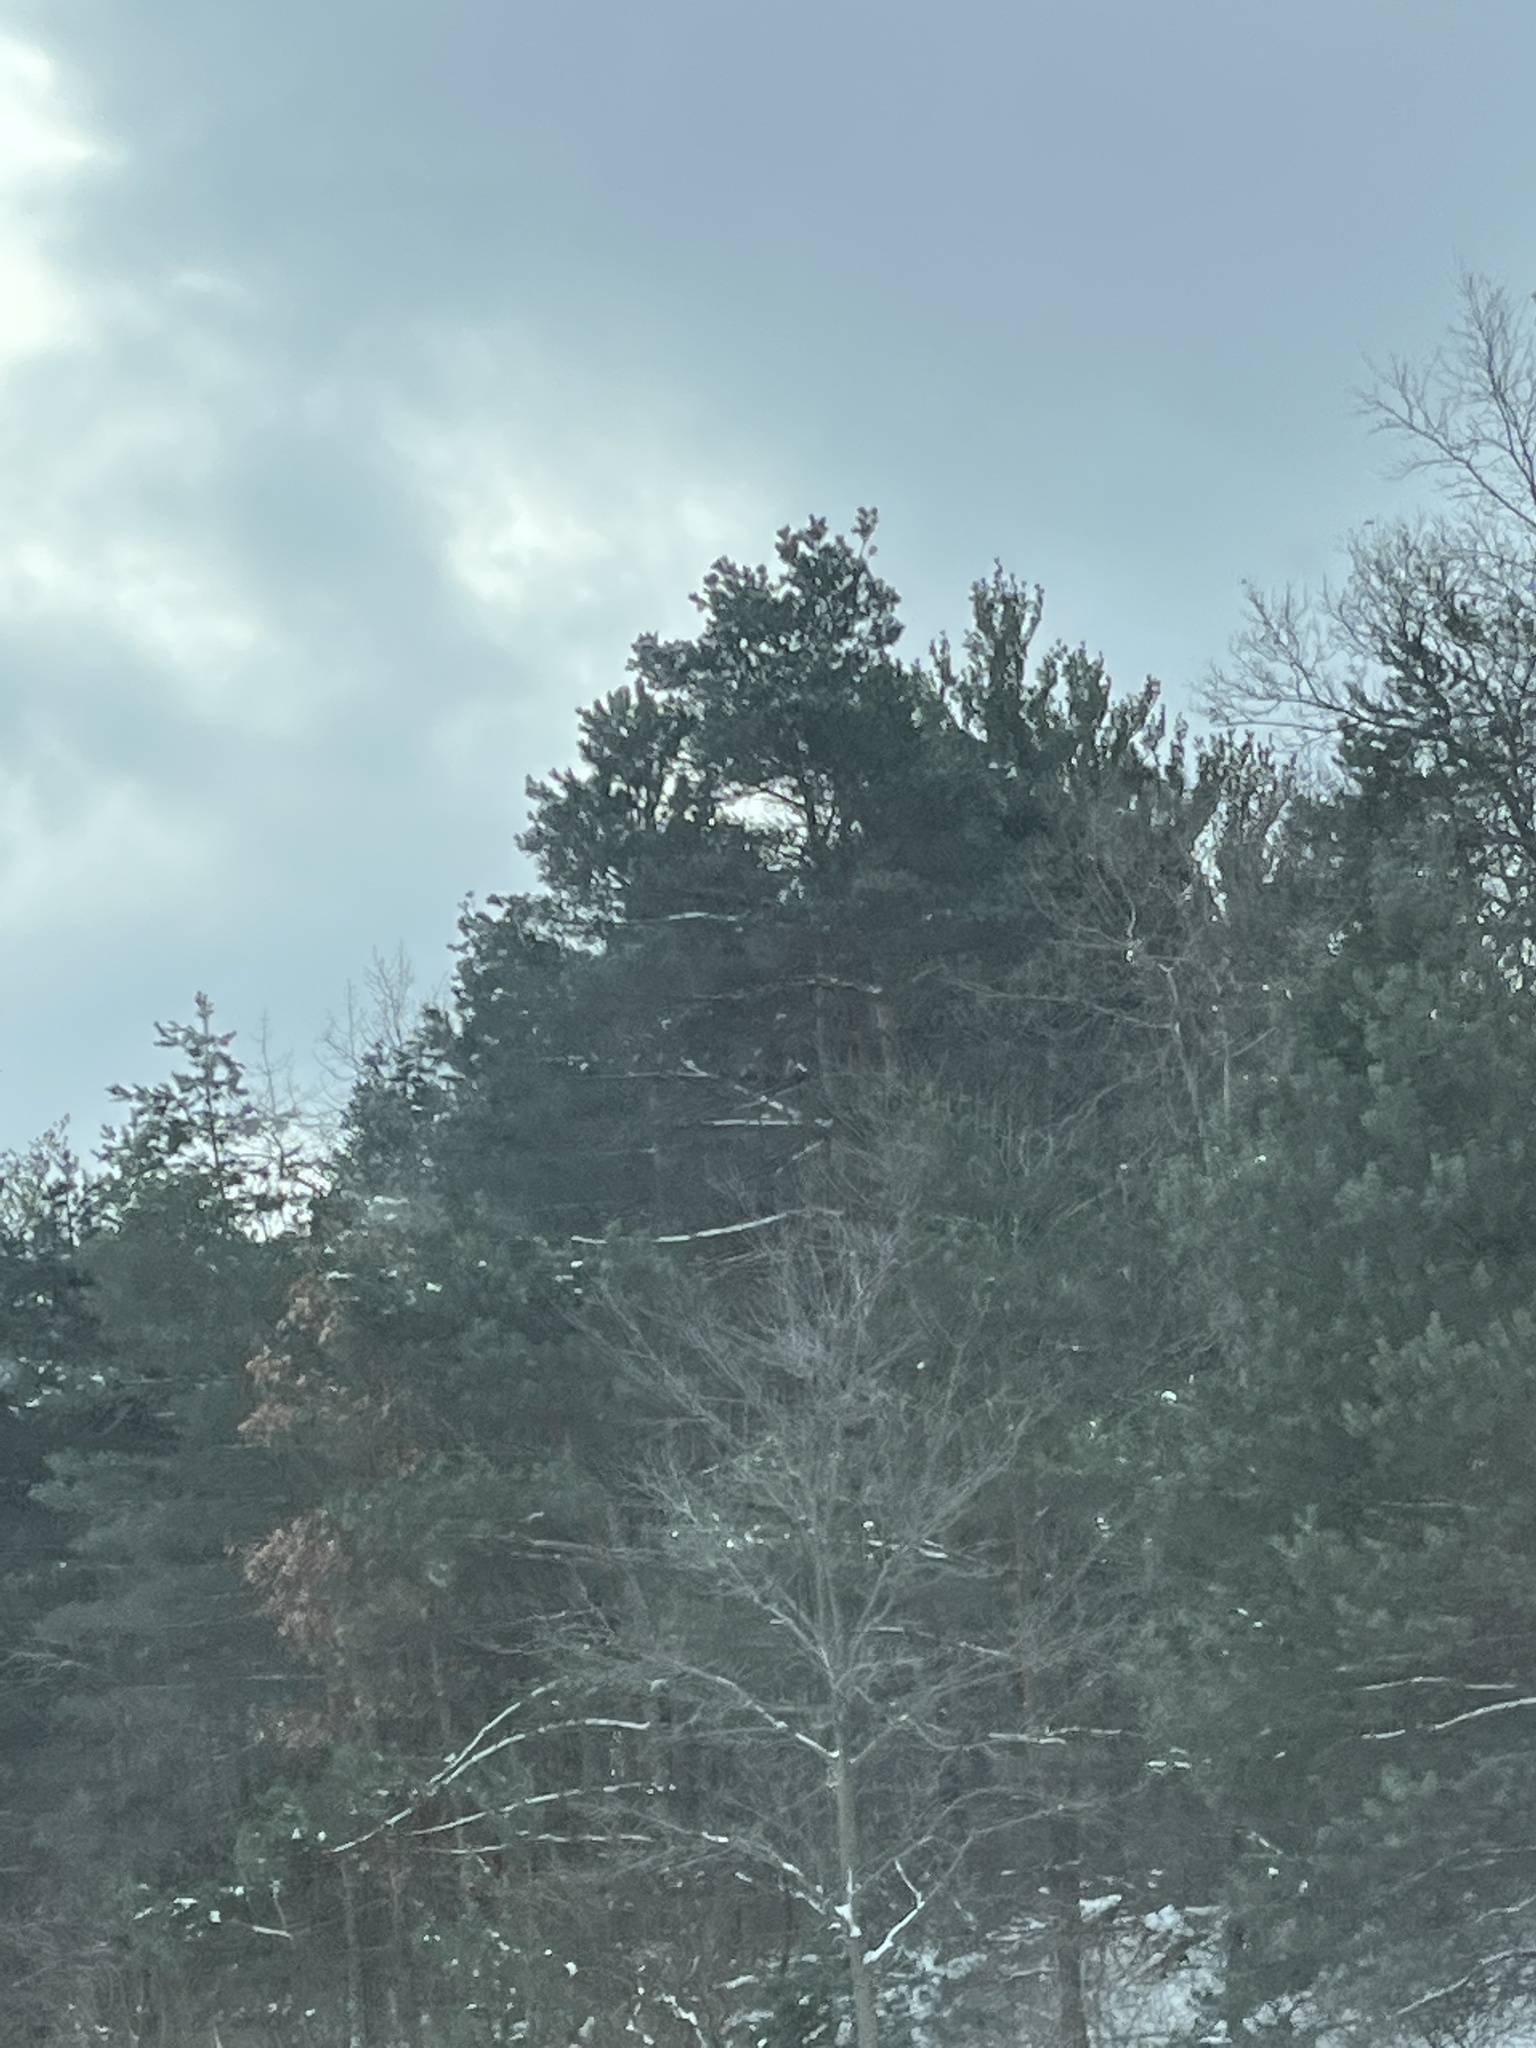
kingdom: Plantae
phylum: Tracheophyta
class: Pinopsida
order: Pinales
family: Pinaceae
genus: Pinus
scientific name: Pinus strobus
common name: Weymouth pine
